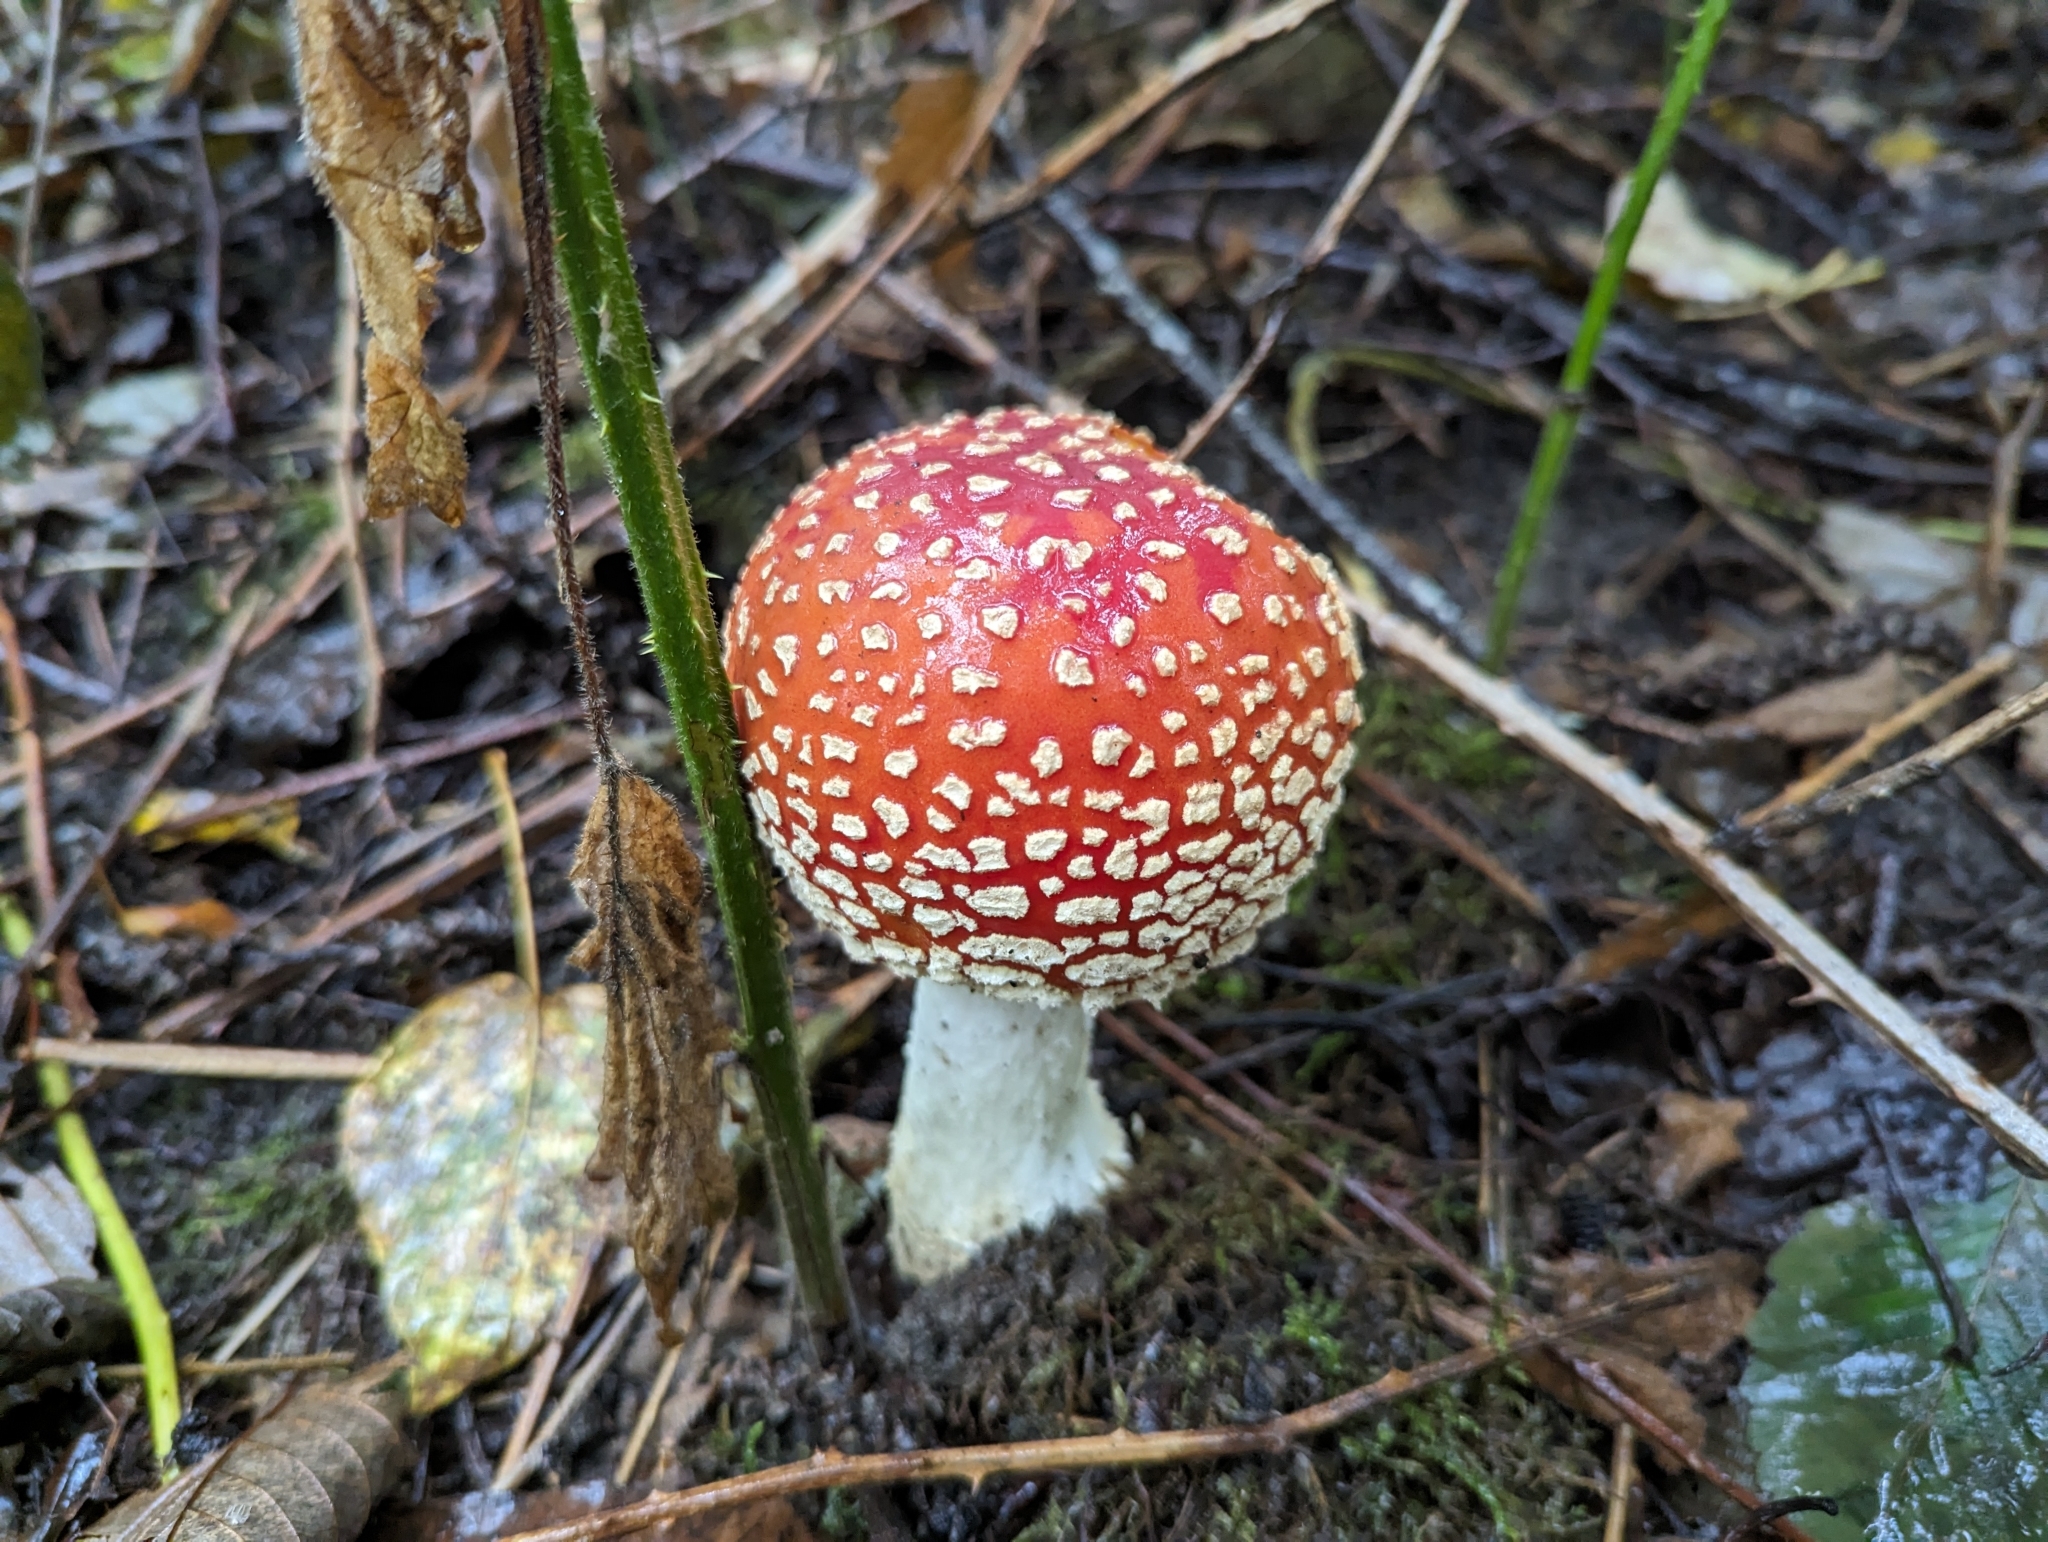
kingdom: Fungi
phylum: Basidiomycota
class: Agaricomycetes
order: Agaricales
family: Amanitaceae
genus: Amanita
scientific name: Amanita muscaria
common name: Fly agaric
